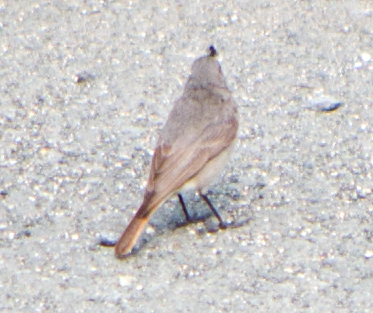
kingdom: Animalia
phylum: Chordata
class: Aves
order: Passeriformes
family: Muscicapidae
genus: Phoenicurus
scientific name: Phoenicurus ochruros
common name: Black redstart
